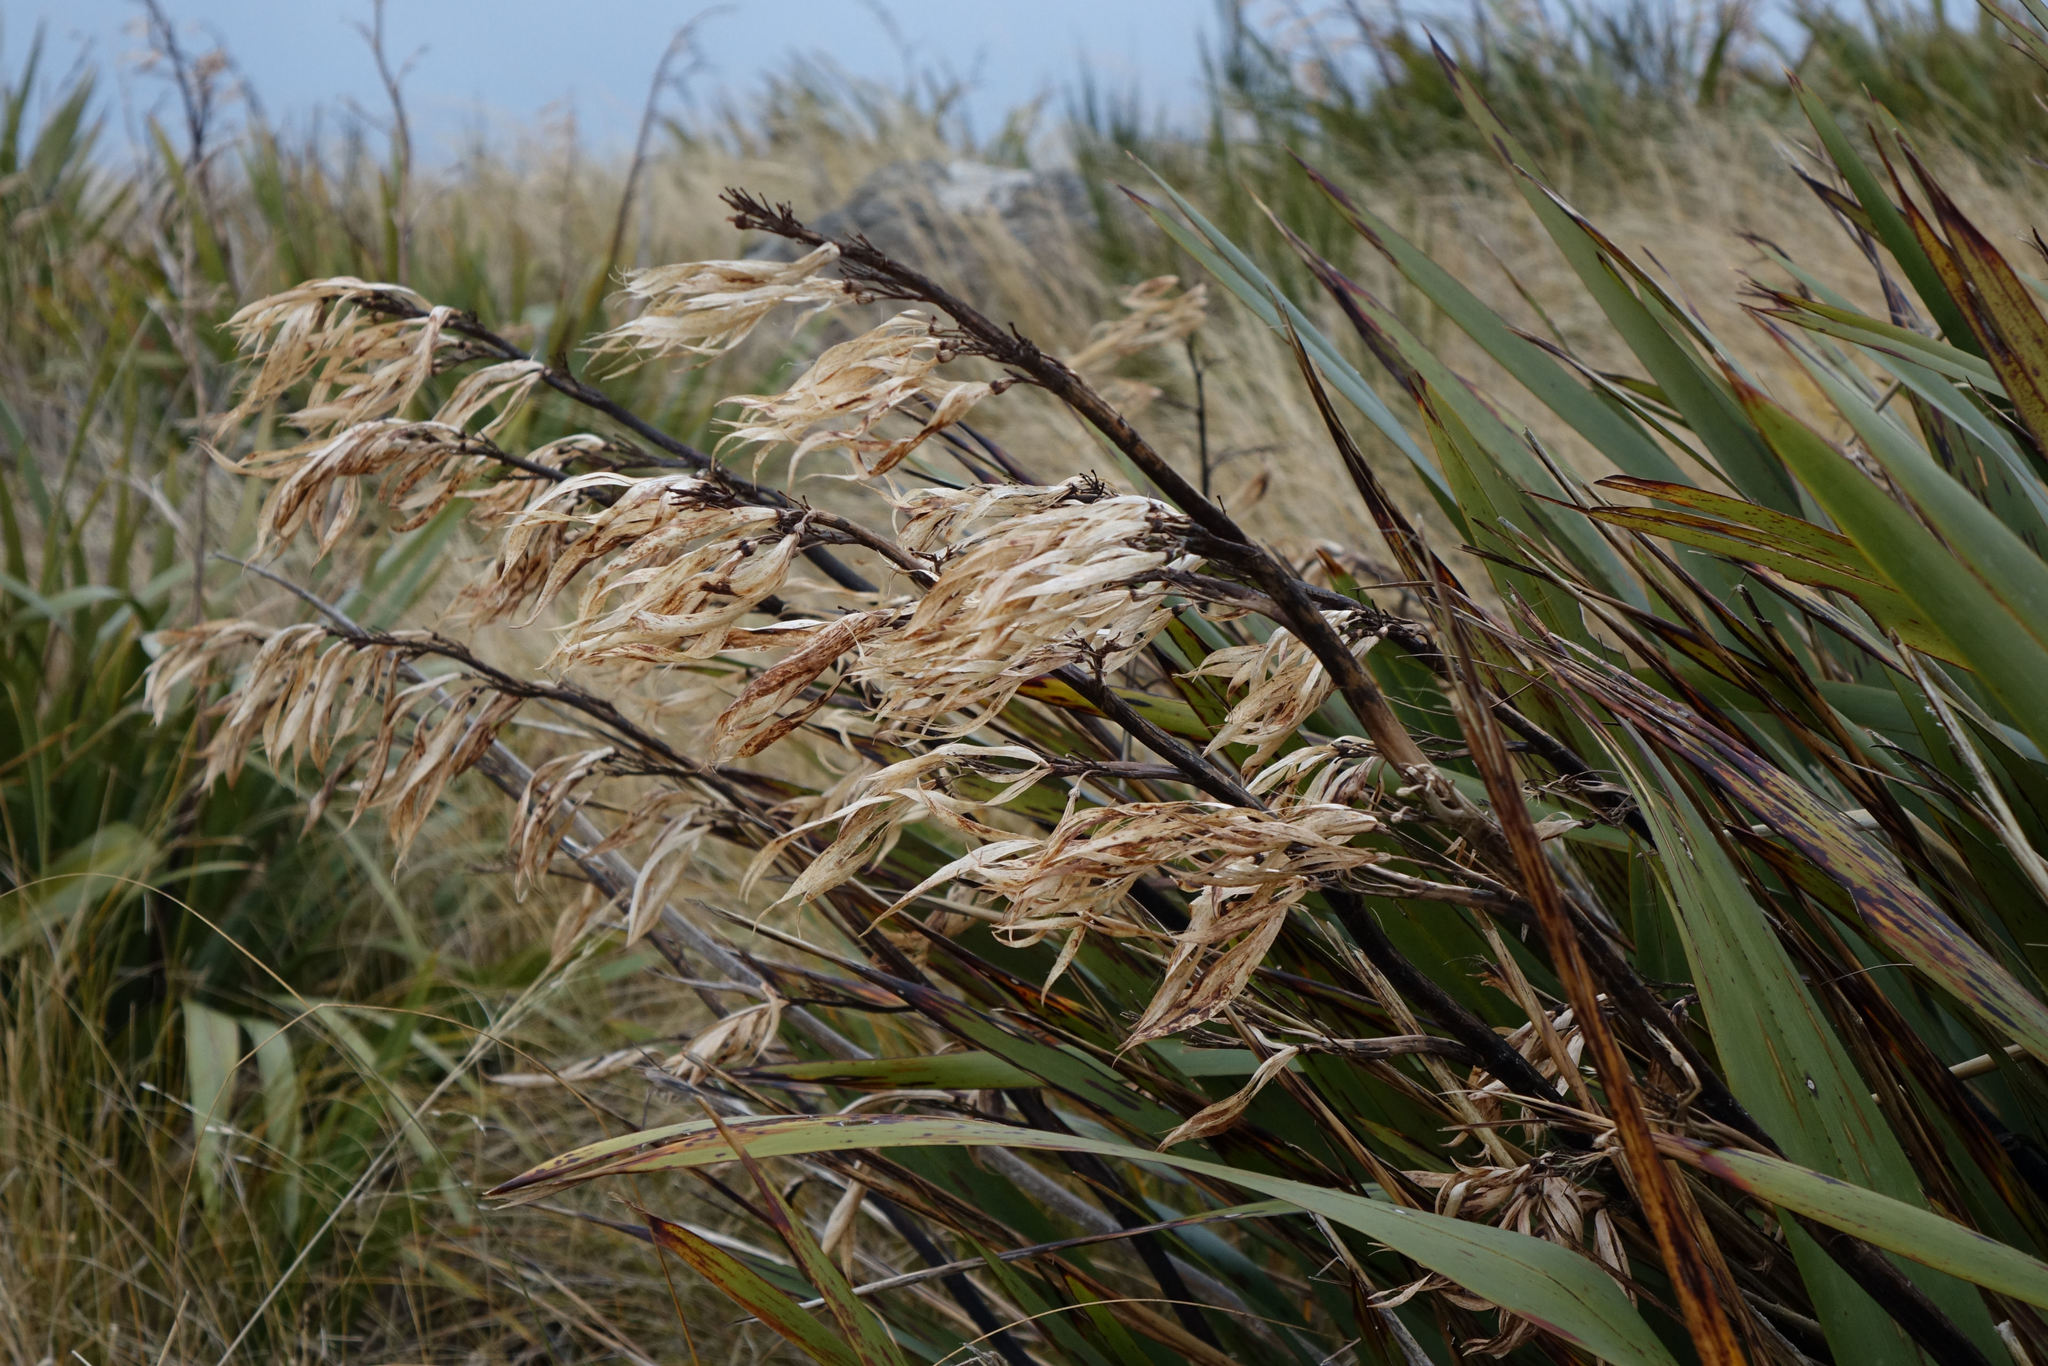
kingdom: Plantae
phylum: Tracheophyta
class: Liliopsida
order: Asparagales
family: Asphodelaceae
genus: Phormium
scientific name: Phormium colensoi
